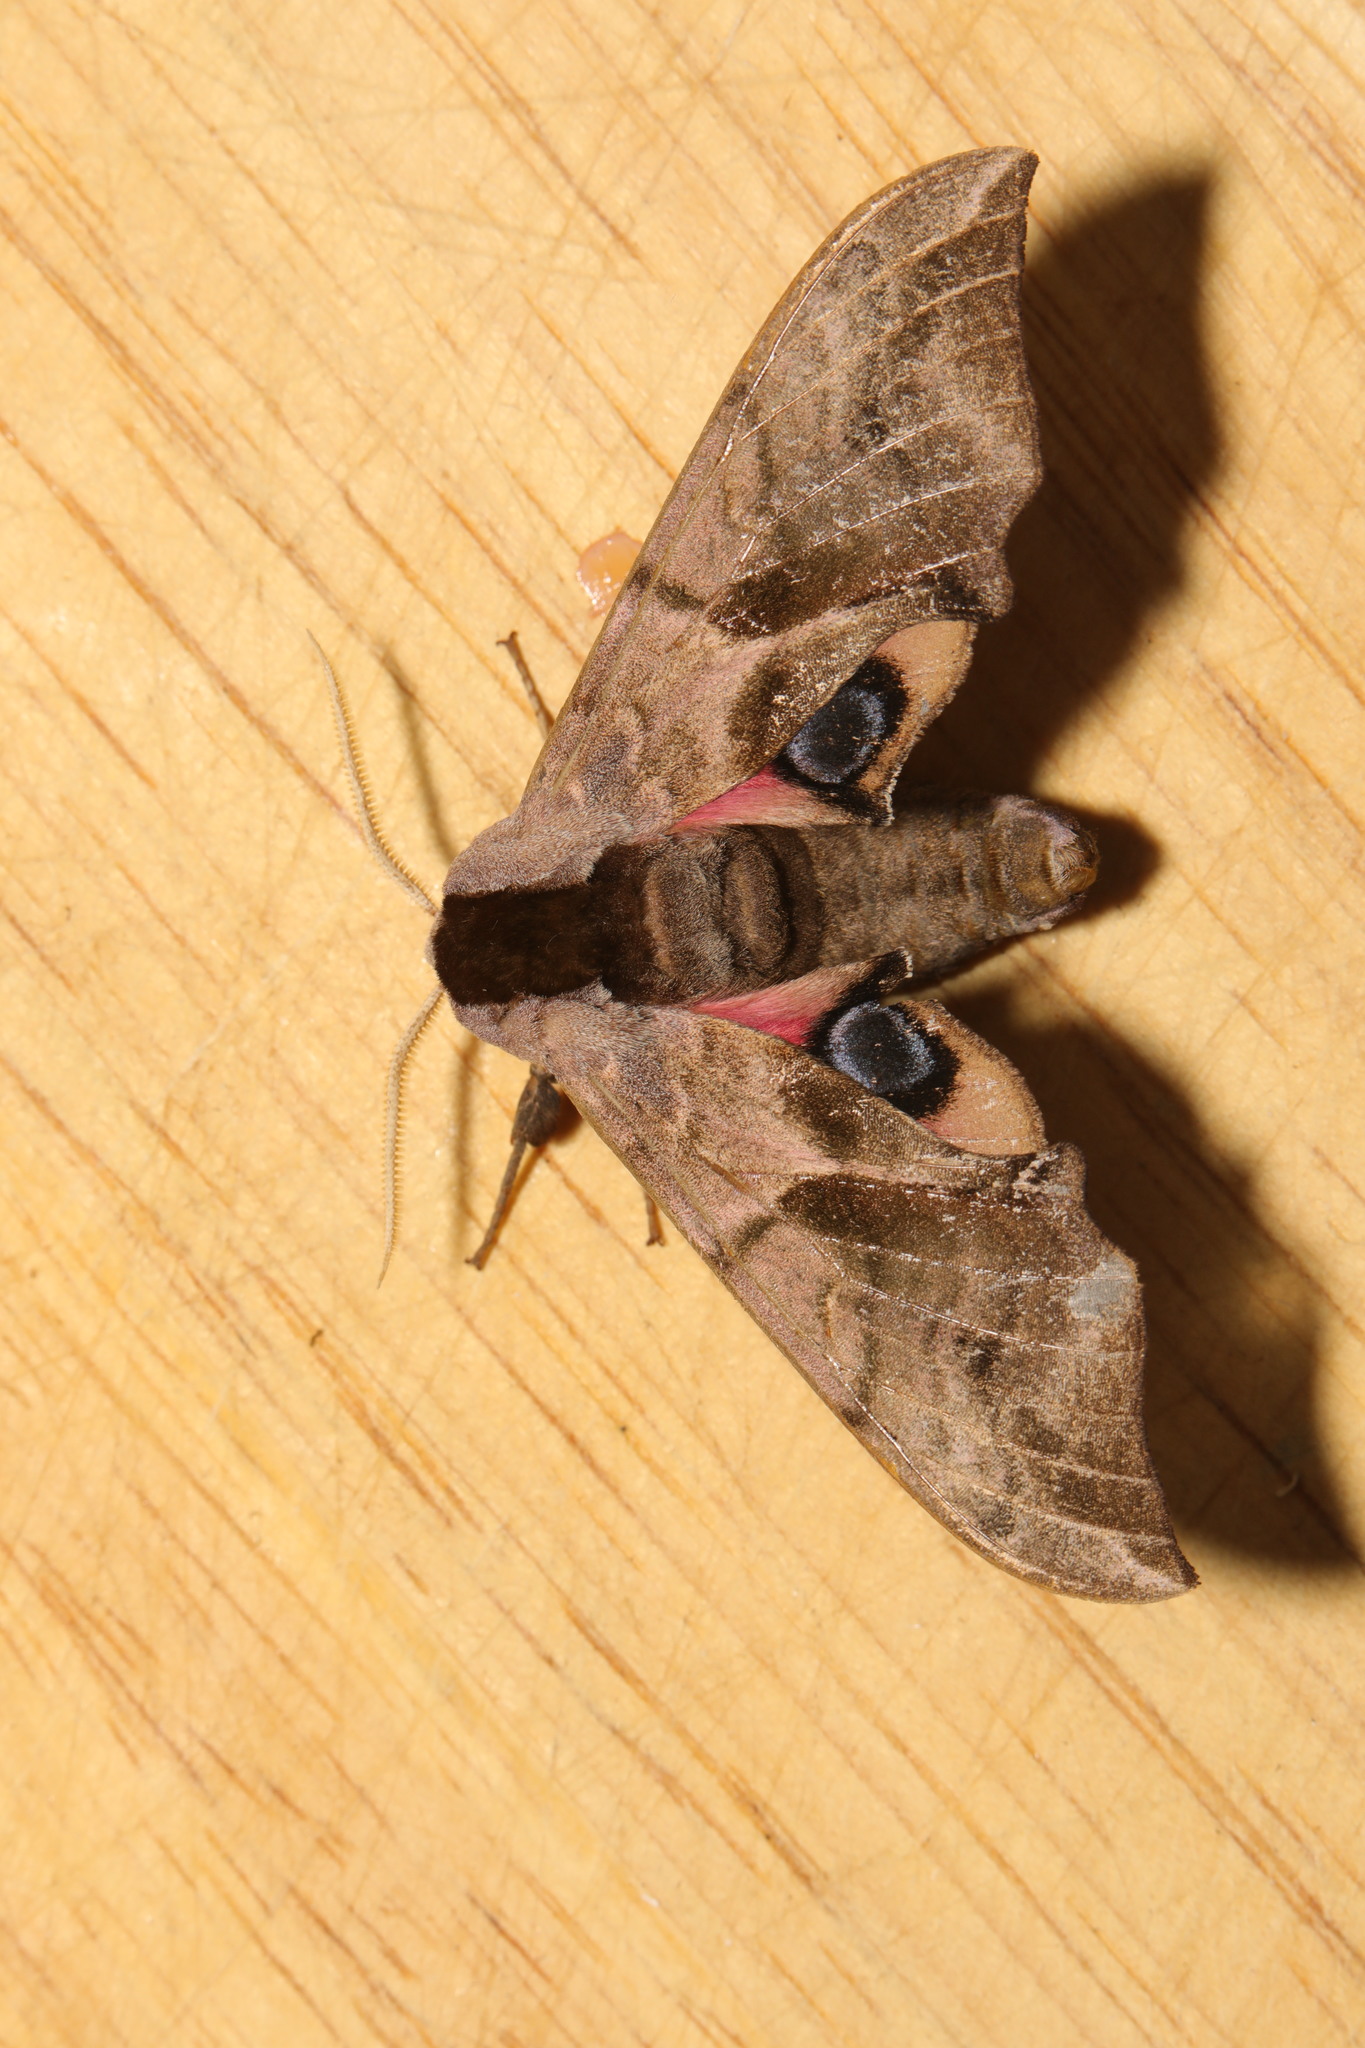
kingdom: Animalia
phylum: Arthropoda
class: Insecta
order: Lepidoptera
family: Sphingidae
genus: Smerinthus
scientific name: Smerinthus ocellata
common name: Eyed hawk-moth
